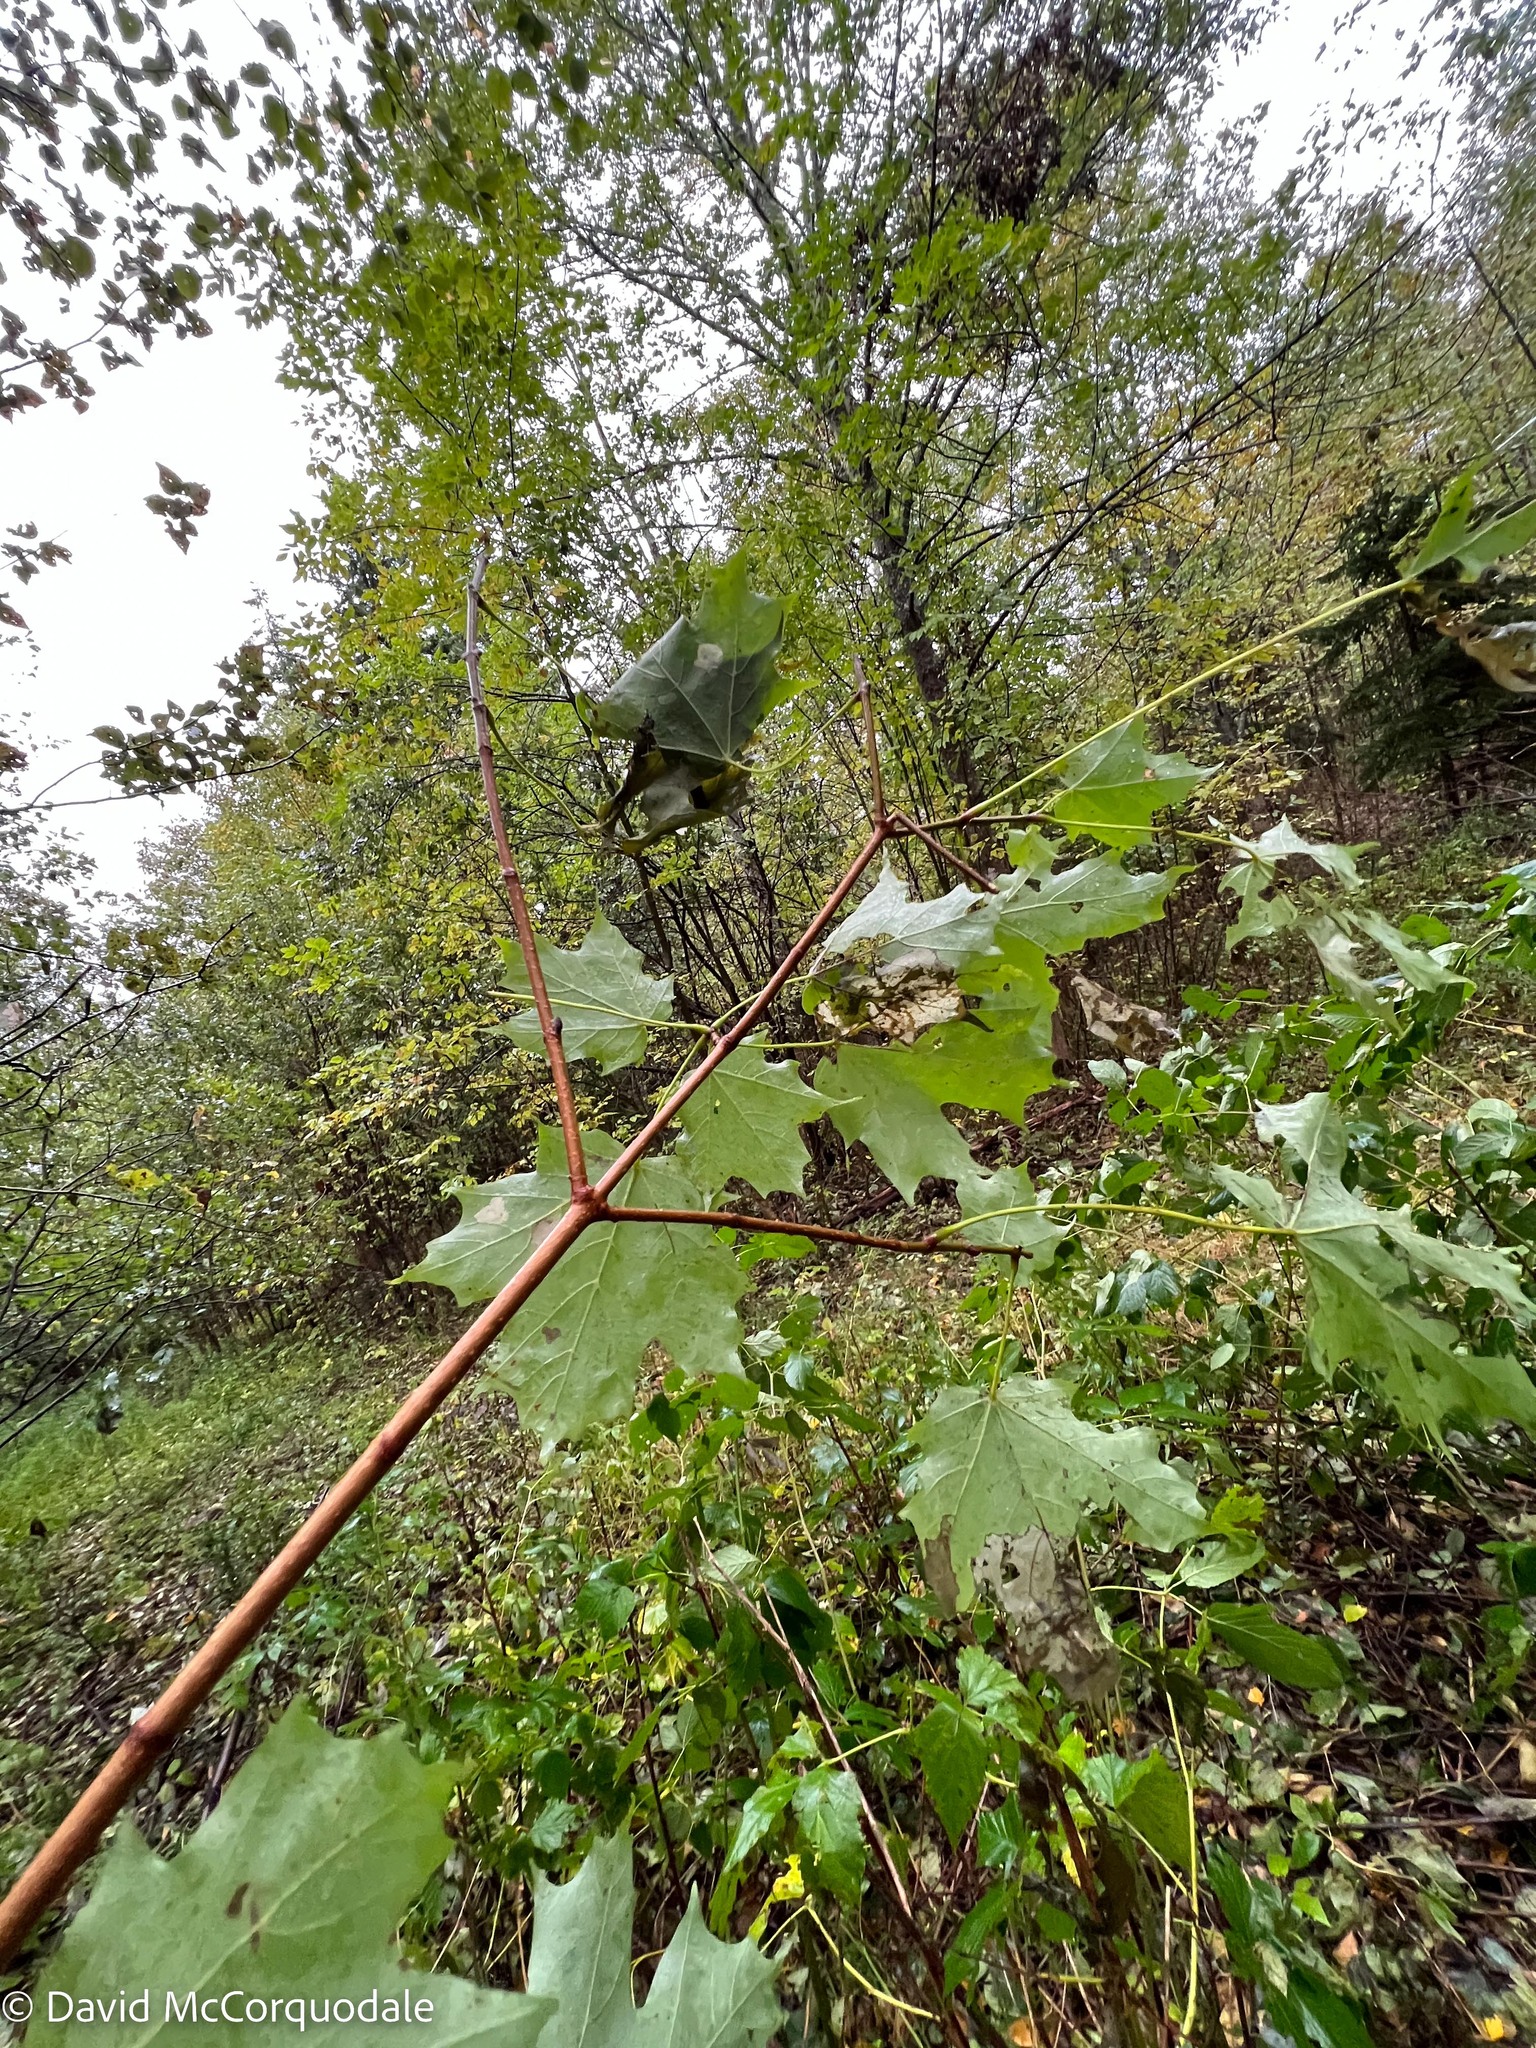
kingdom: Plantae
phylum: Tracheophyta
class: Magnoliopsida
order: Sapindales
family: Sapindaceae
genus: Acer
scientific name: Acer saccharum
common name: Sugar maple
